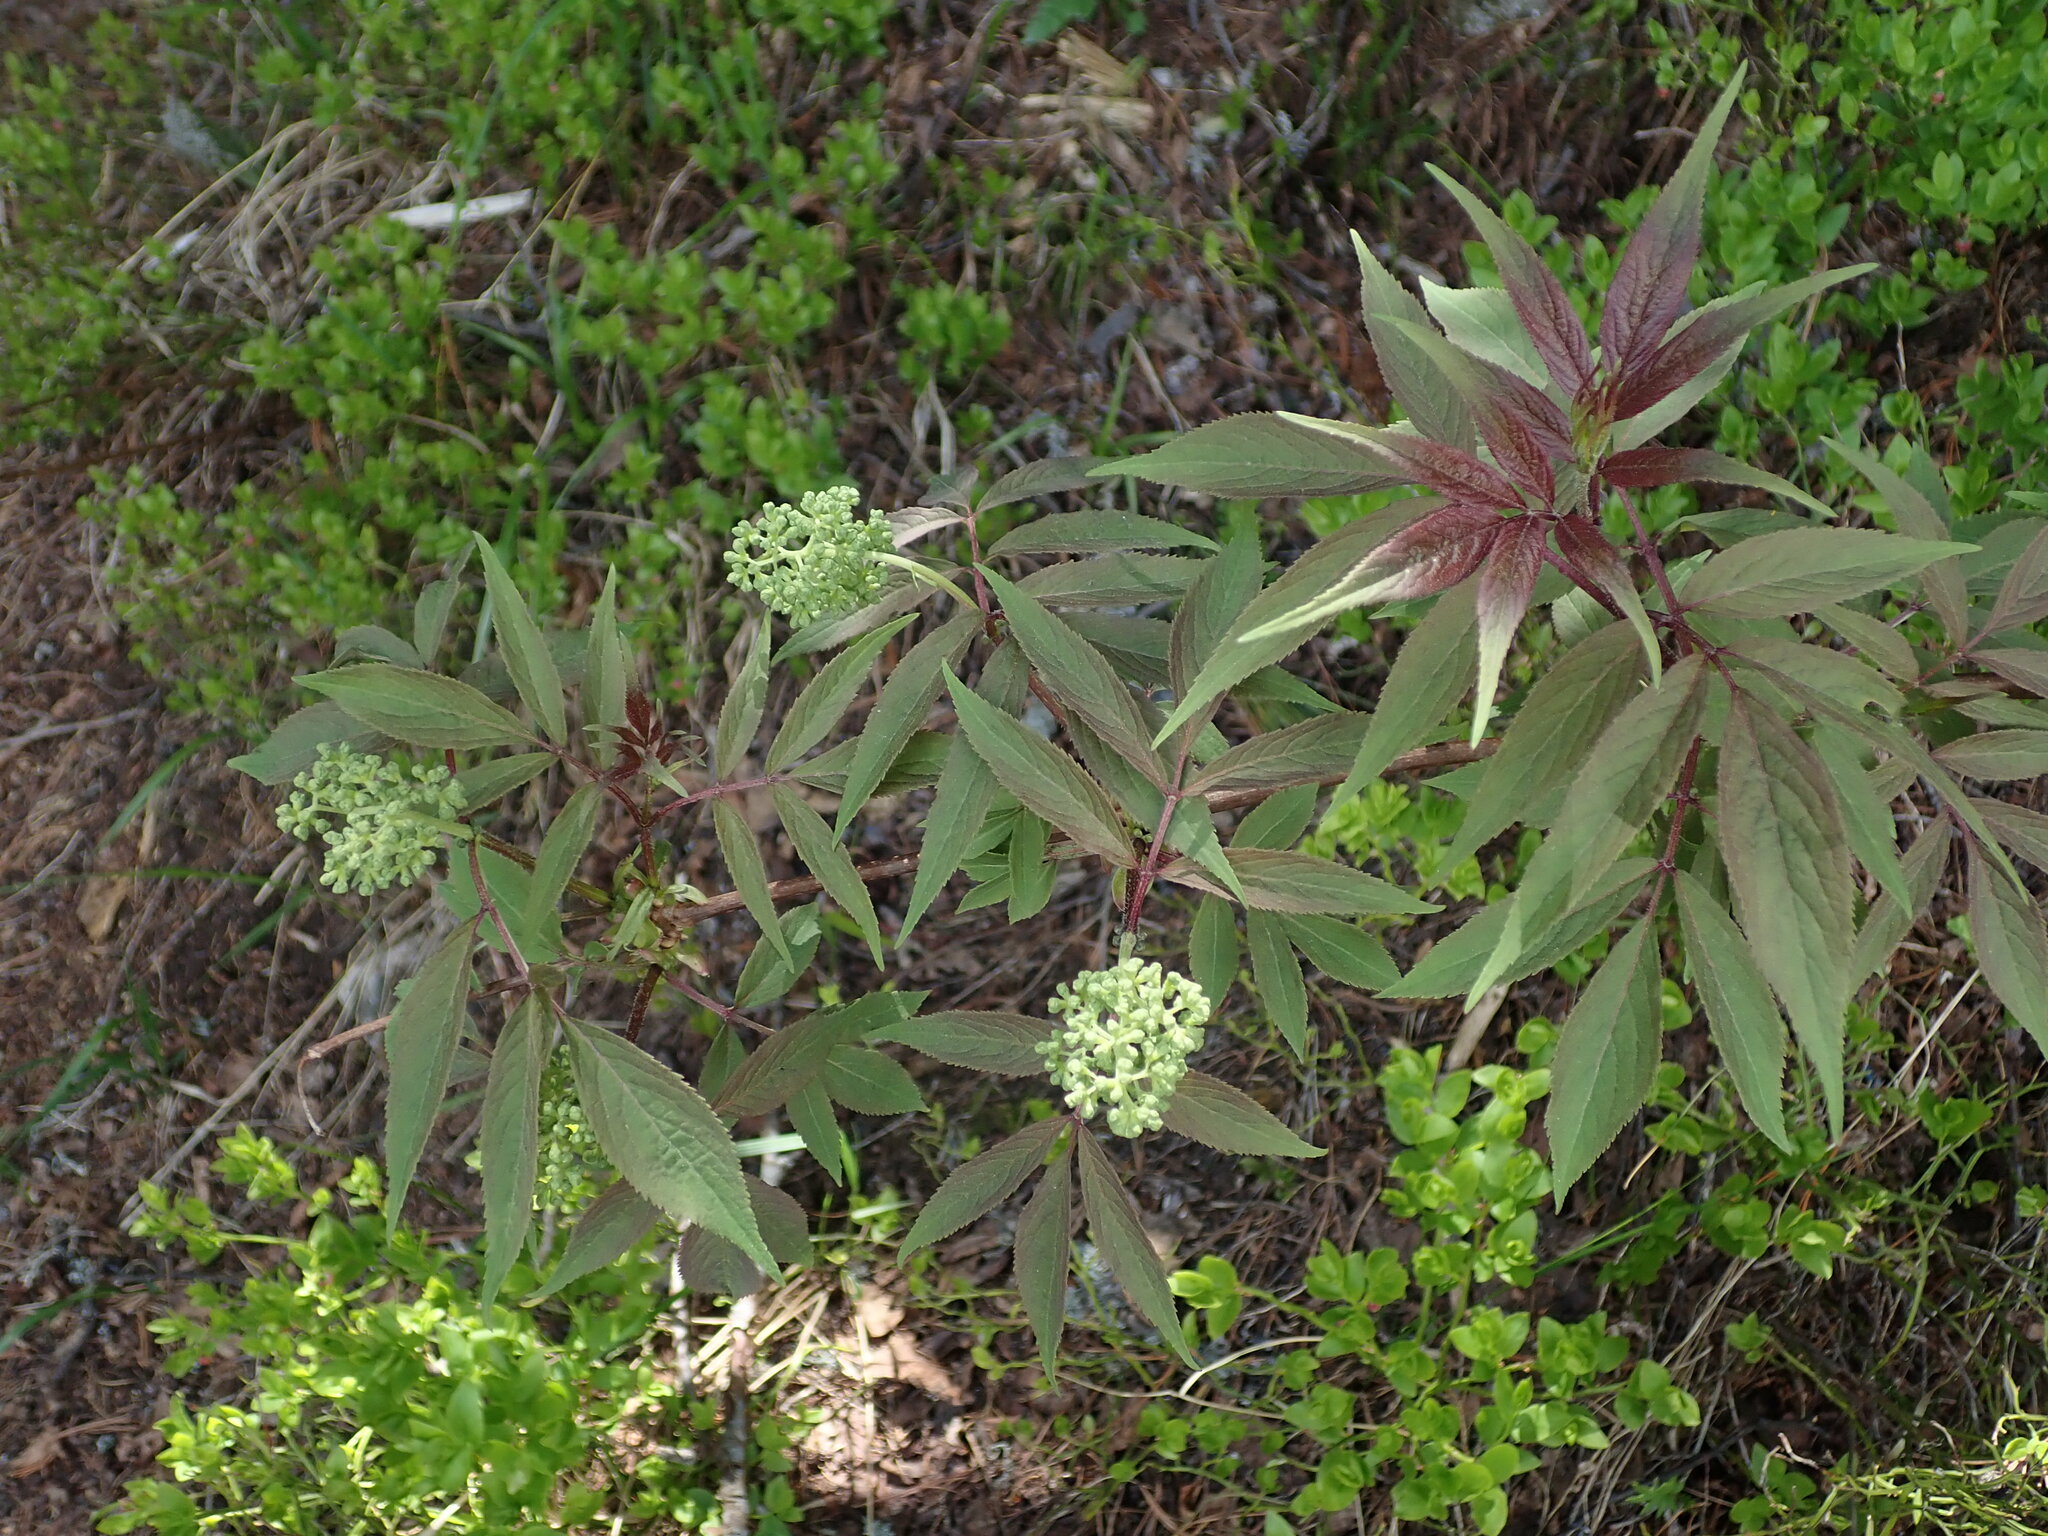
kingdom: Plantae
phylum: Tracheophyta
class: Magnoliopsida
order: Dipsacales
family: Viburnaceae
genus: Sambucus
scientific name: Sambucus racemosa
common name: Red-berried elder
